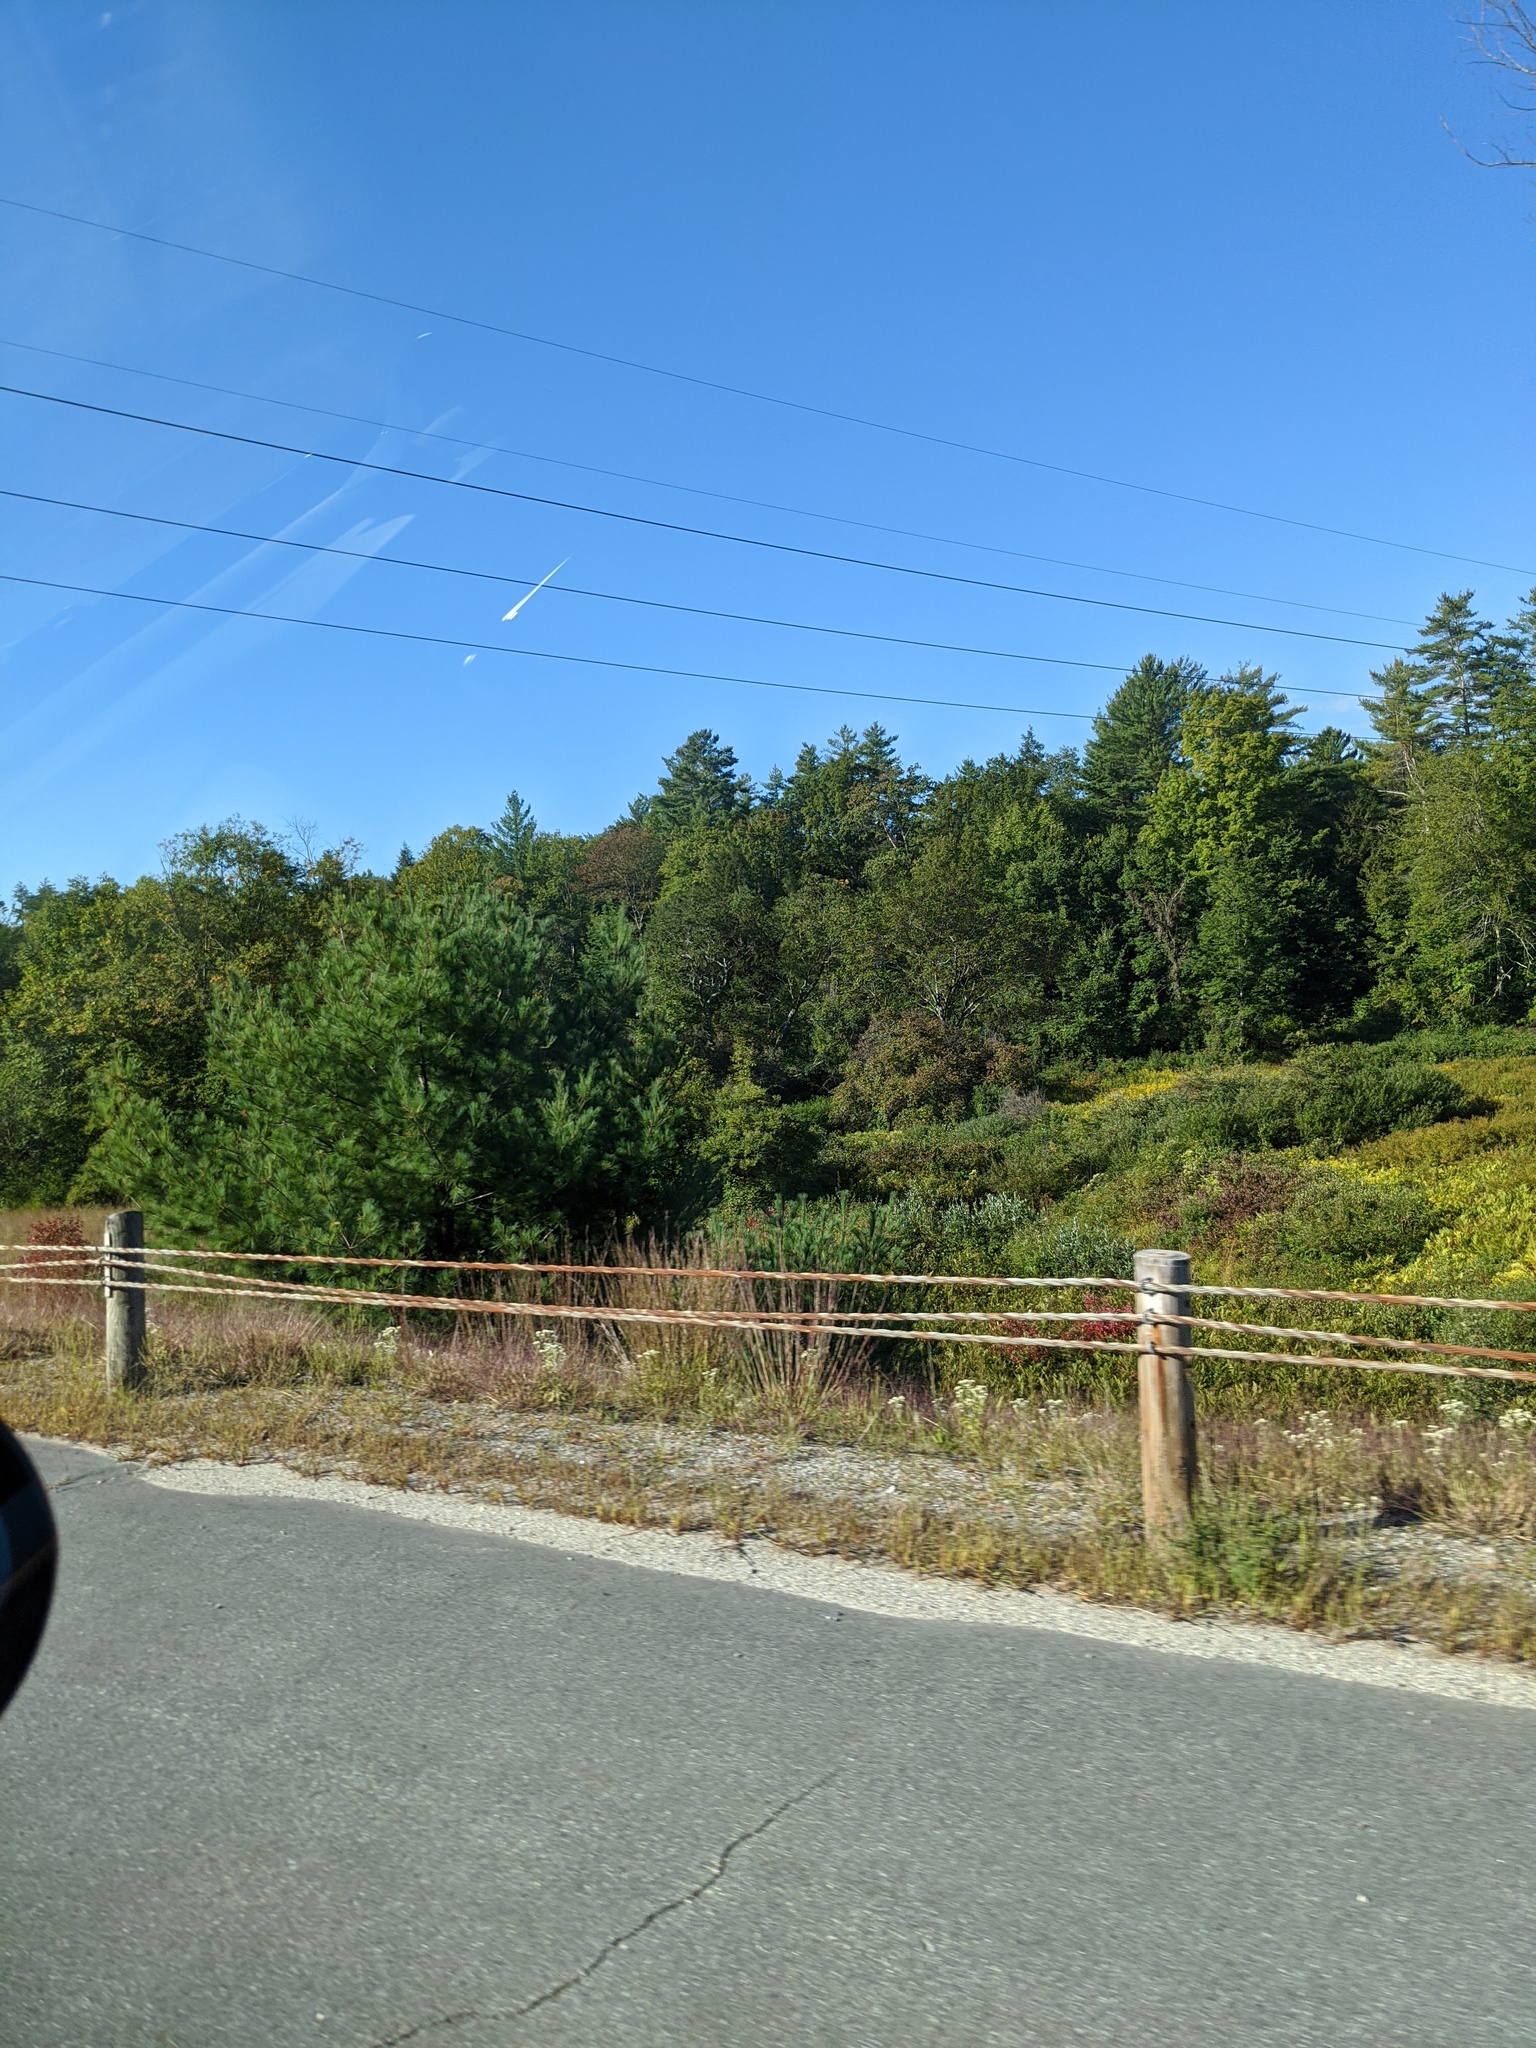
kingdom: Plantae
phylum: Tracheophyta
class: Pinopsida
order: Pinales
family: Pinaceae
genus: Pinus
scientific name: Pinus strobus
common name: Weymouth pine
